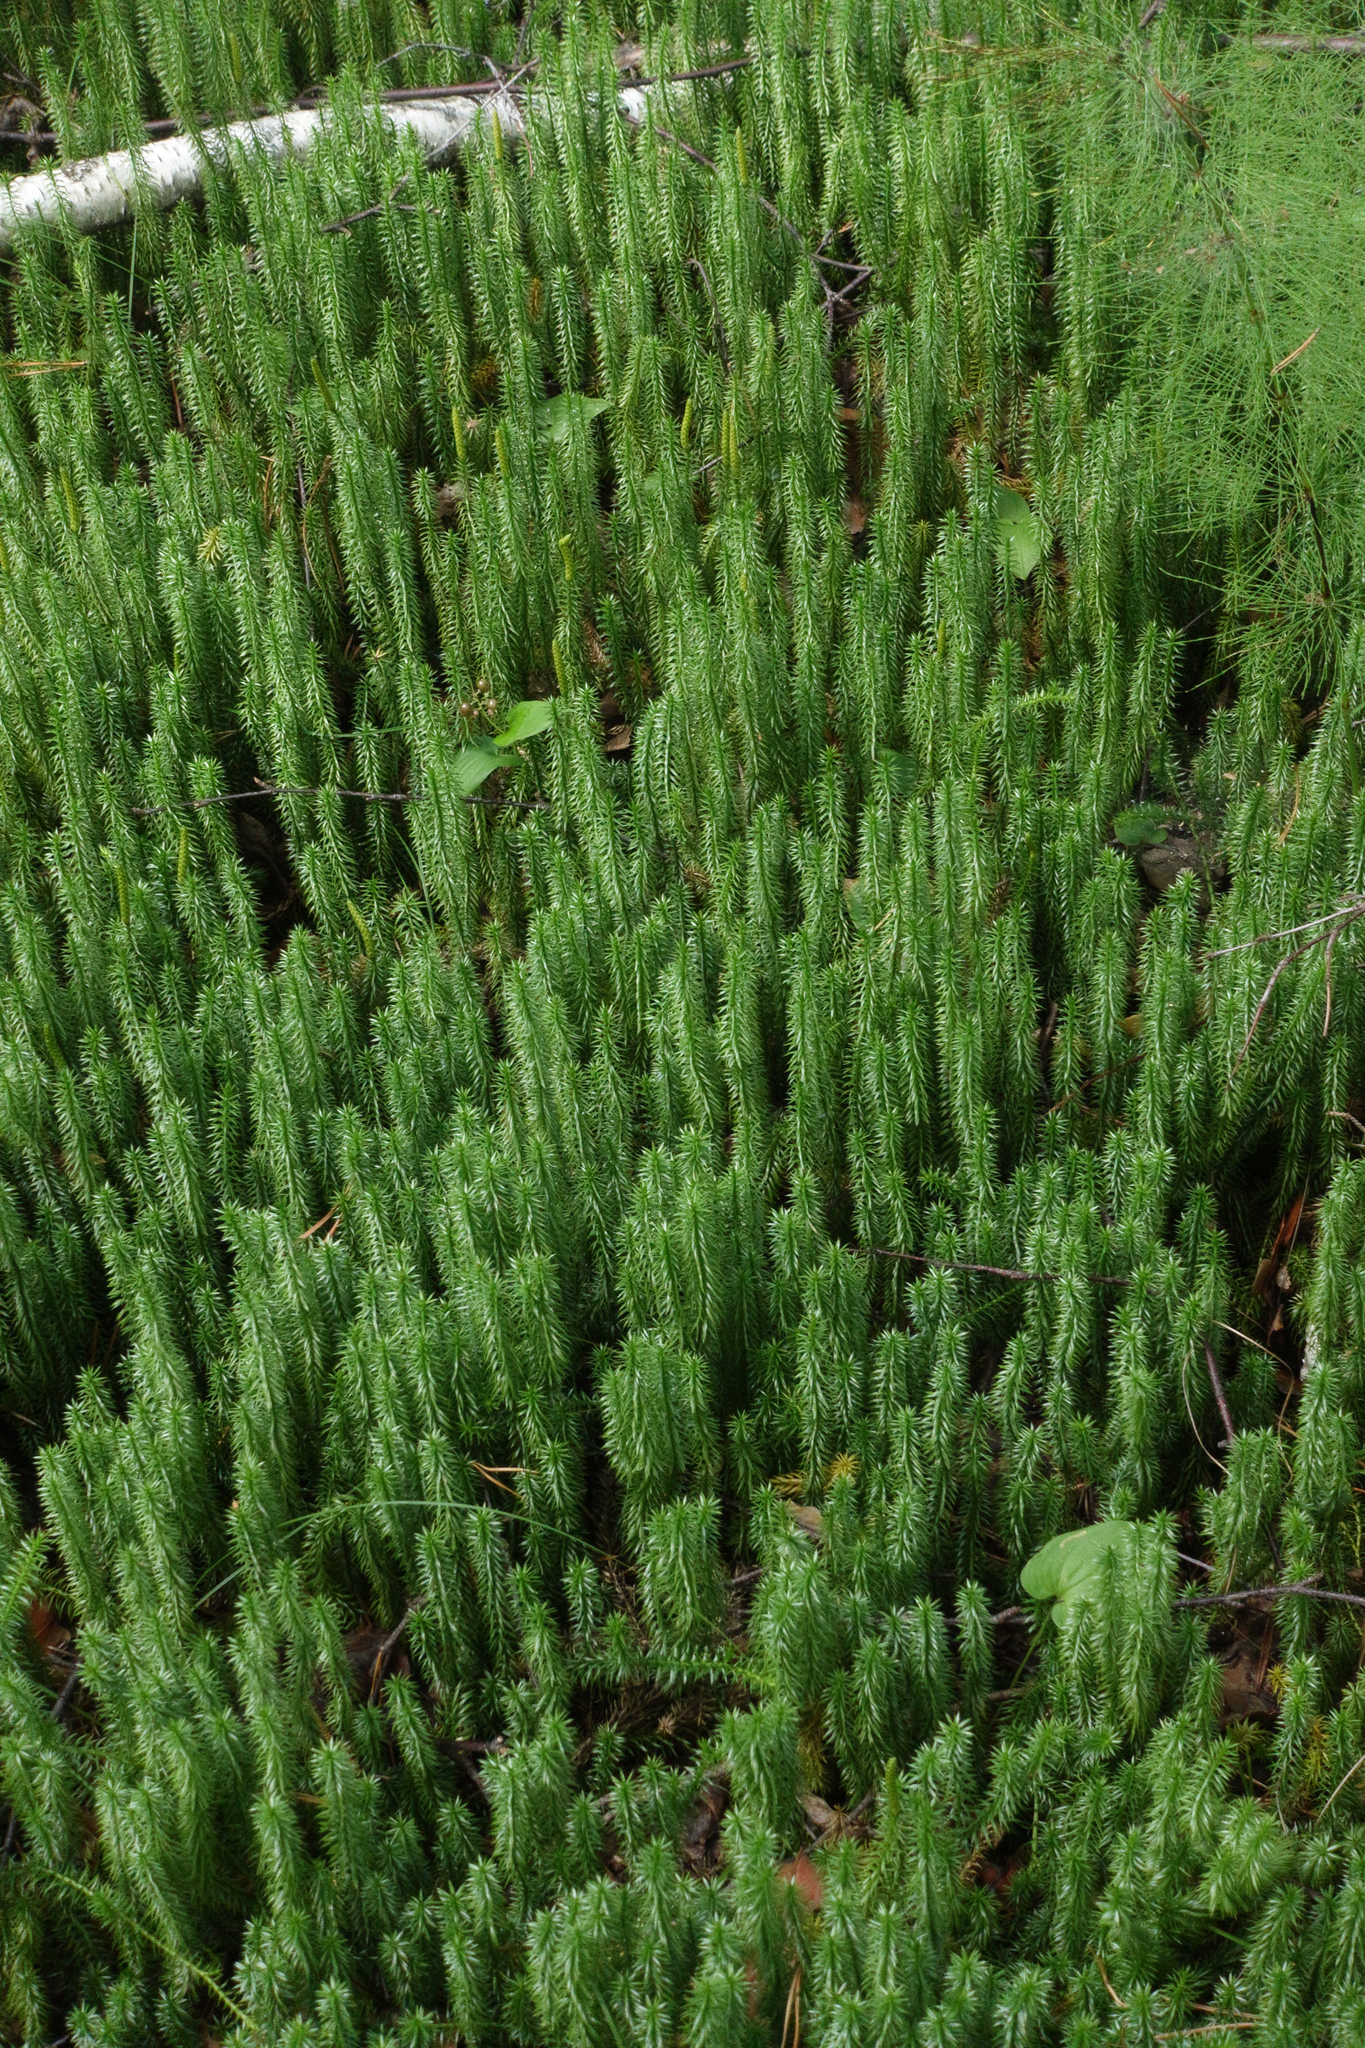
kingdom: Plantae
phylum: Tracheophyta
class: Lycopodiopsida
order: Lycopodiales
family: Lycopodiaceae
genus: Spinulum
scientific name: Spinulum annotinum
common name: Interrupted club-moss
